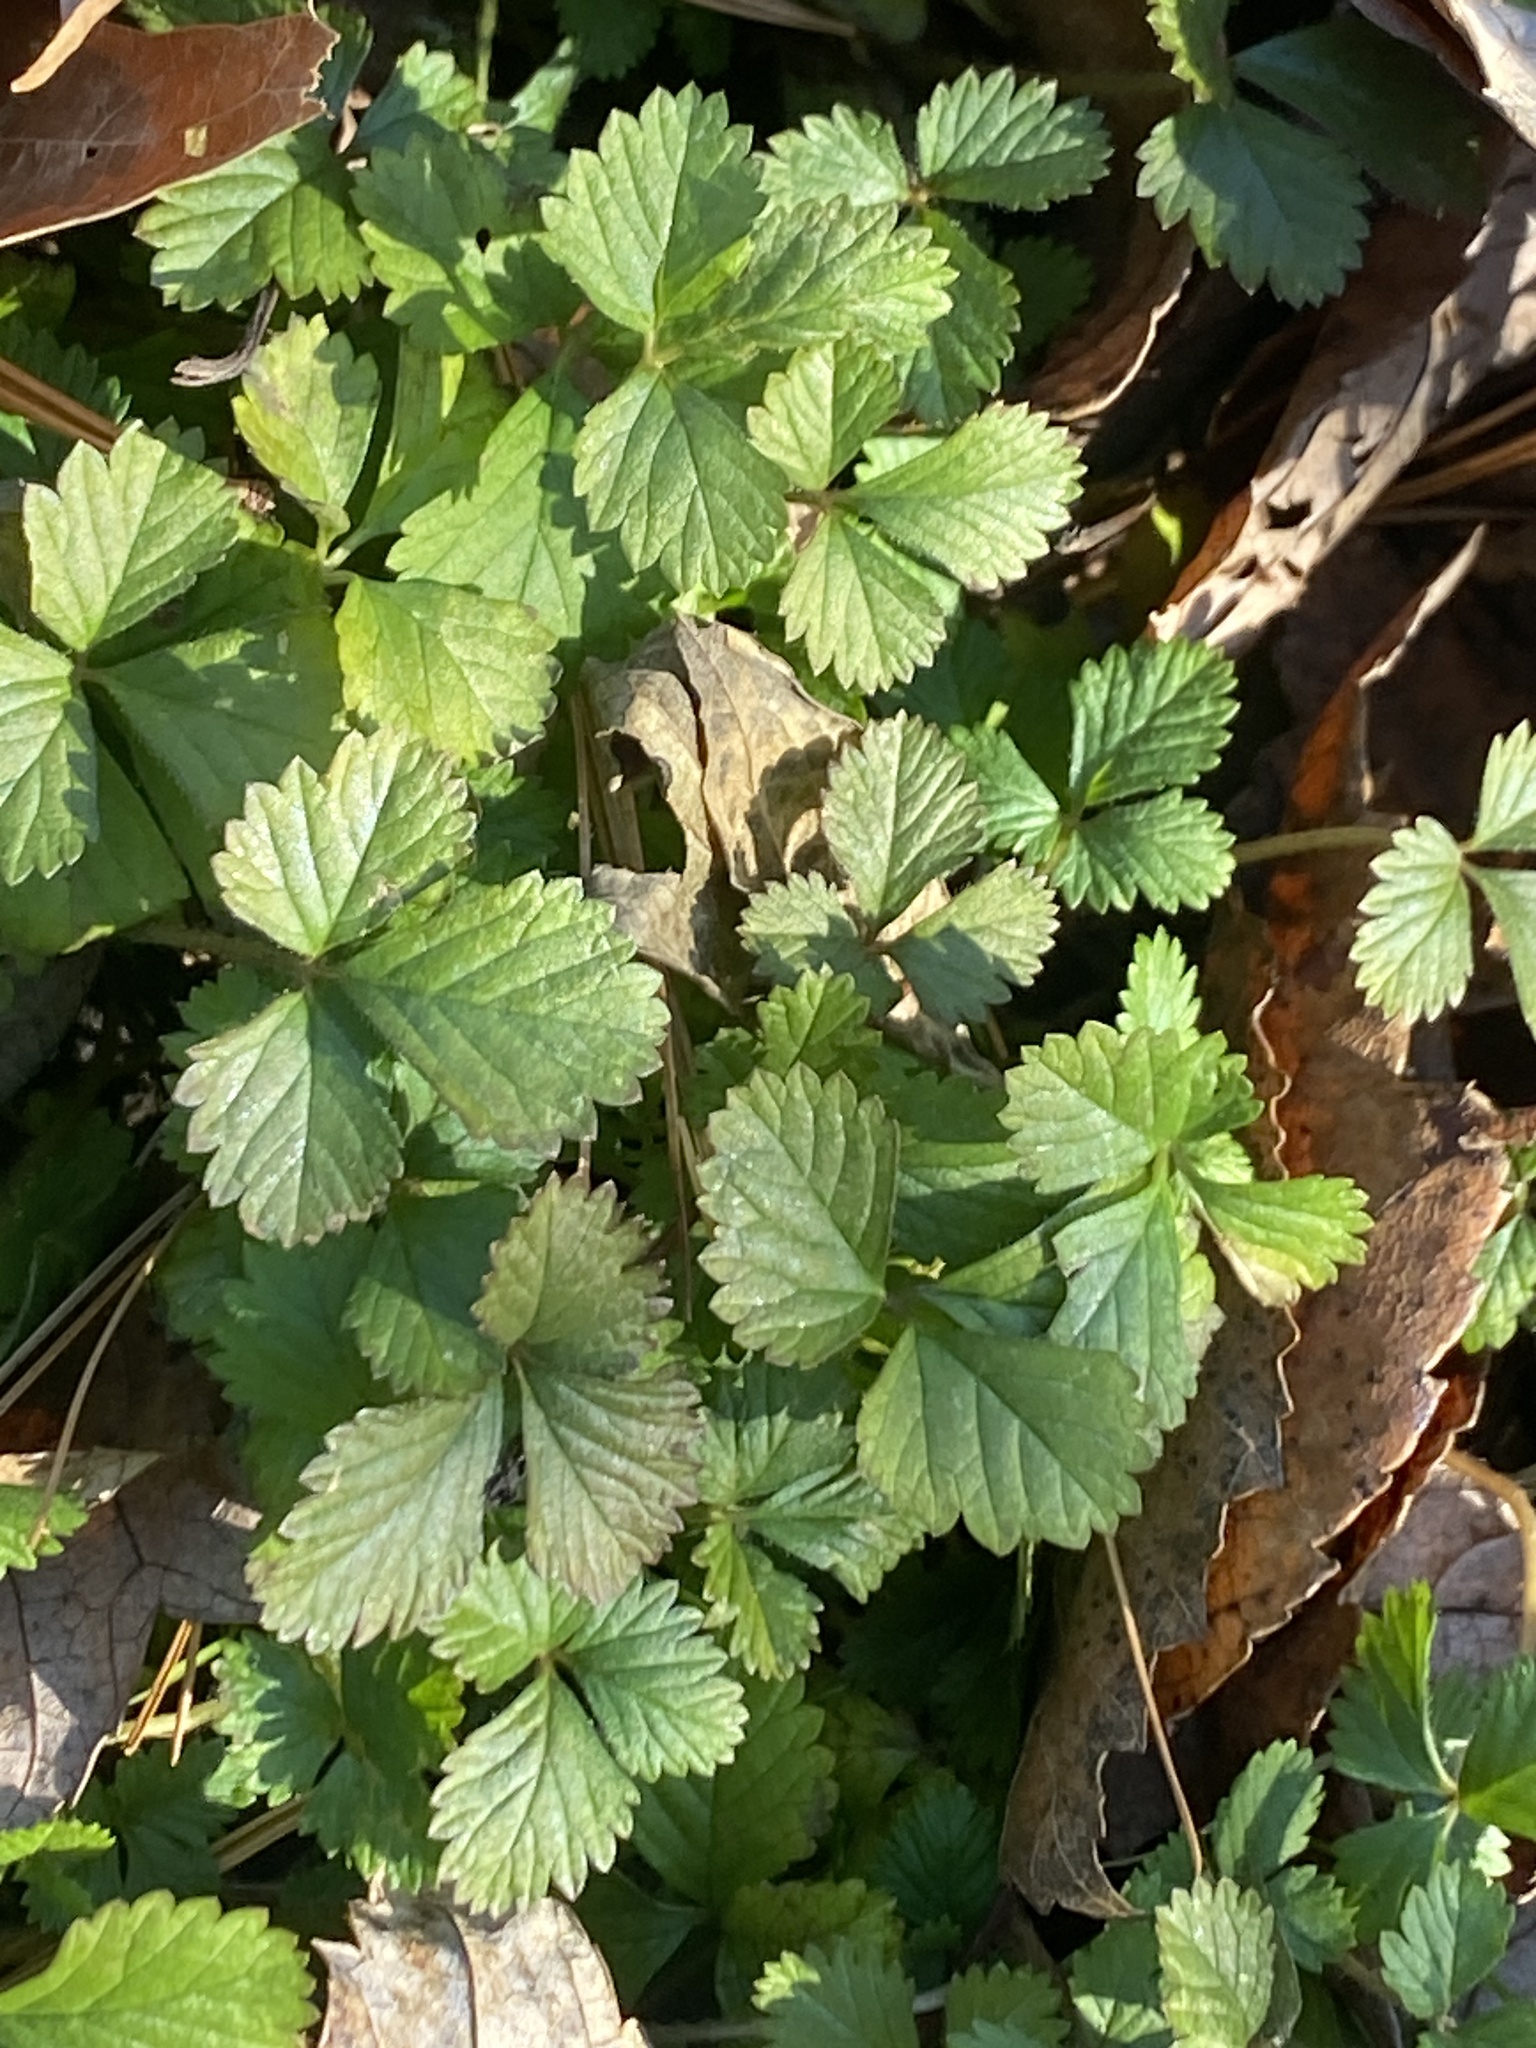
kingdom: Plantae
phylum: Tracheophyta
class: Magnoliopsida
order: Rosales
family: Rosaceae
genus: Potentilla
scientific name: Potentilla indica
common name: Yellow-flowered strawberry
